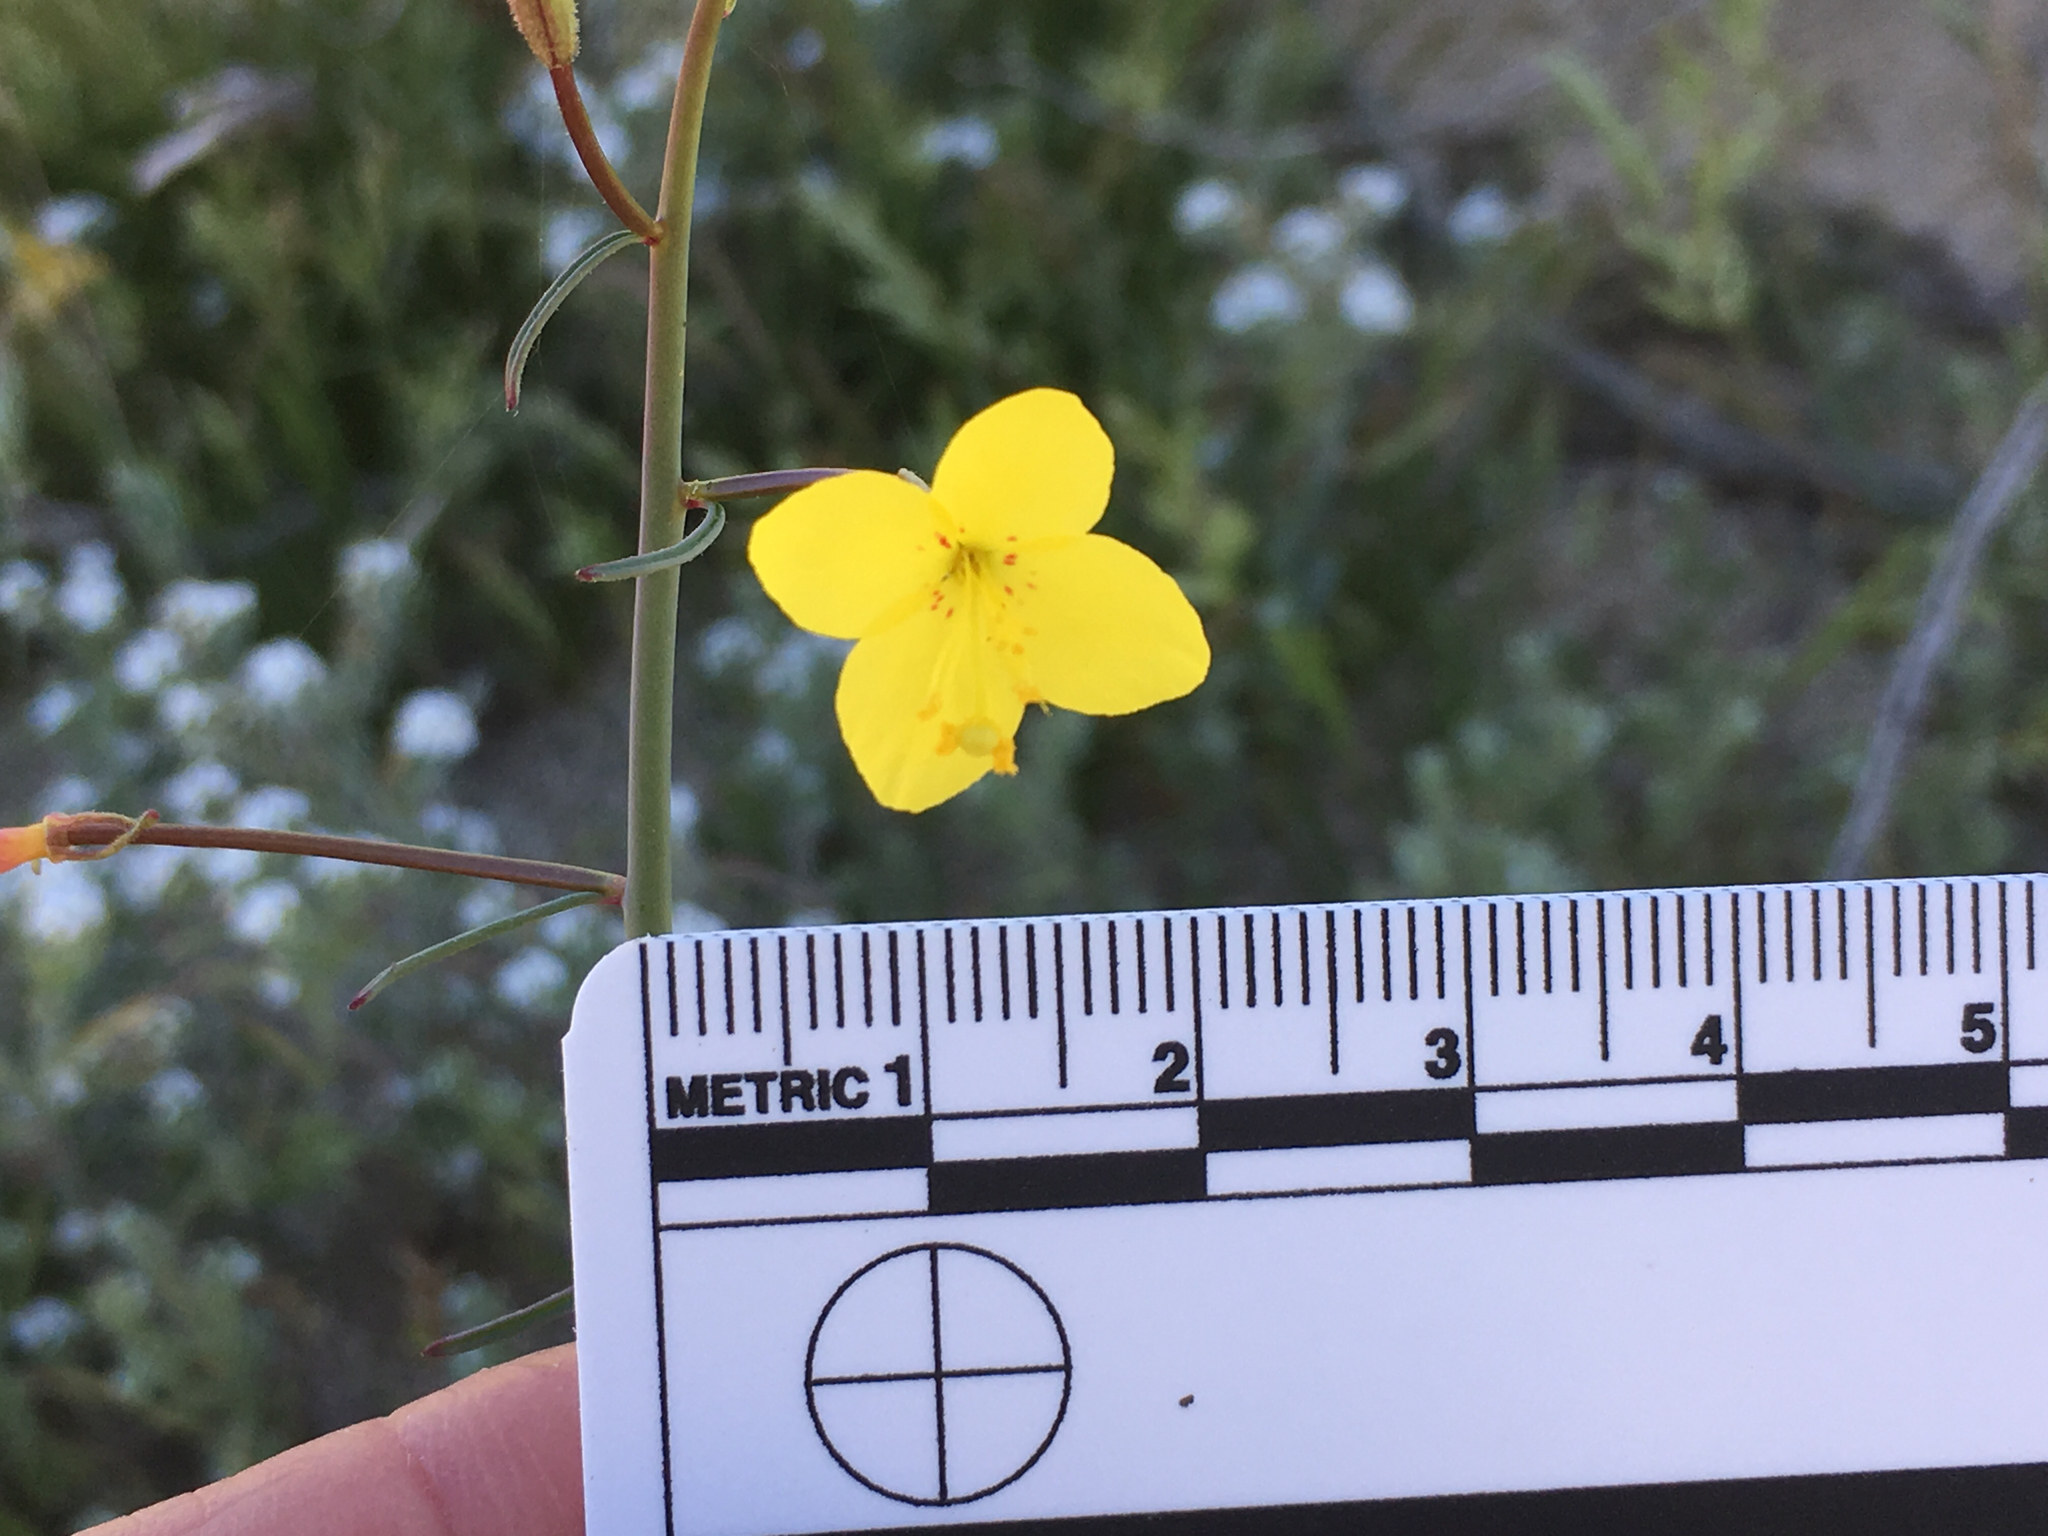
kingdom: Plantae
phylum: Tracheophyta
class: Magnoliopsida
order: Myrtales
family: Onagraceae
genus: Eulobus
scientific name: Eulobus californicus
